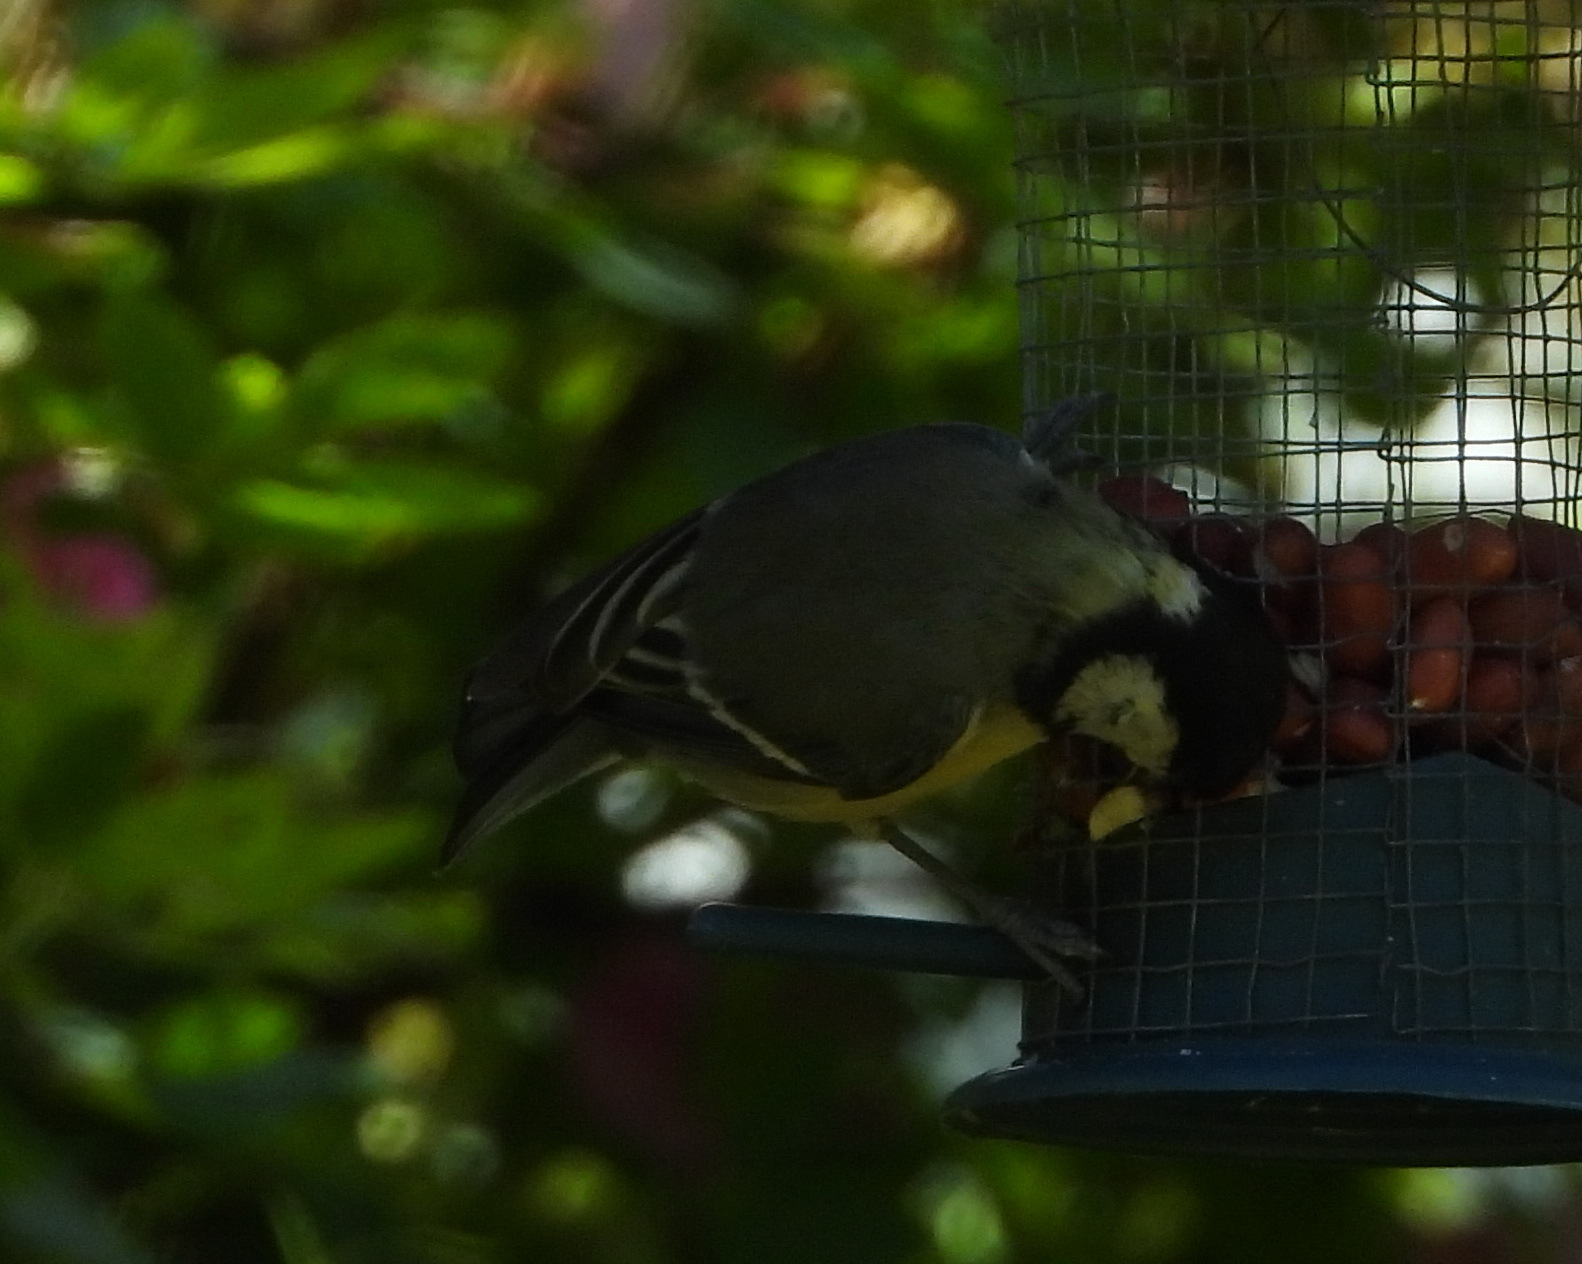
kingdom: Animalia
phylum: Chordata
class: Aves
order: Passeriformes
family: Paridae
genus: Parus
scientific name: Parus major
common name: Great tit
